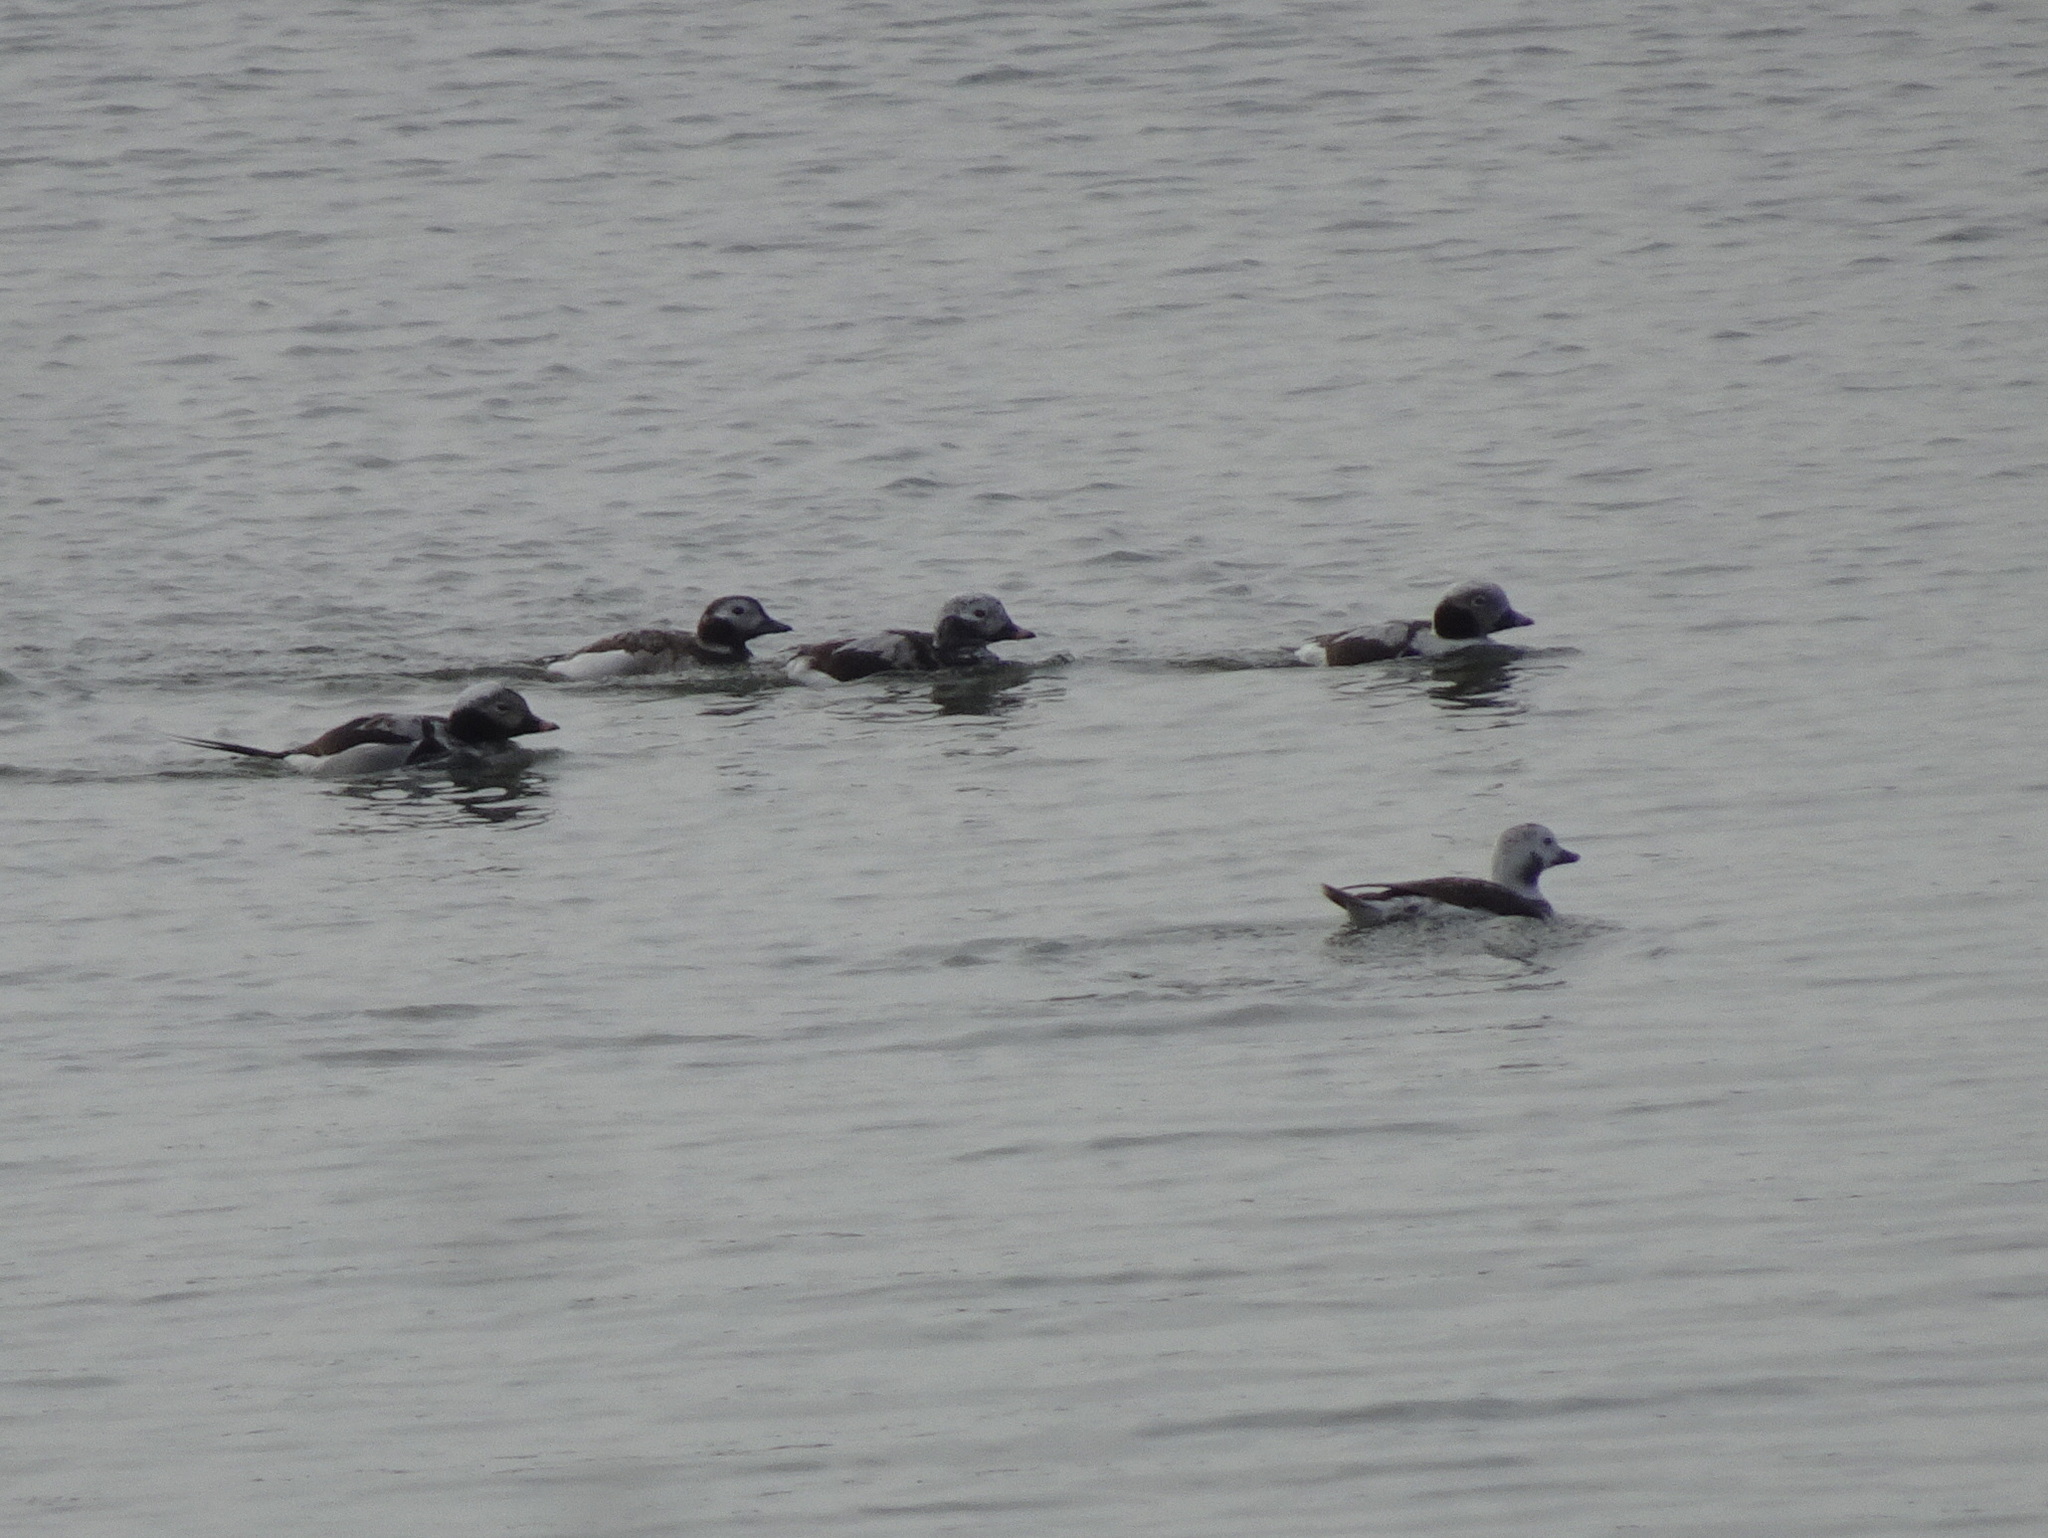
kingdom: Animalia
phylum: Chordata
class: Aves
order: Anseriformes
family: Anatidae
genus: Clangula
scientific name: Clangula hyemalis
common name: Long-tailed duck
